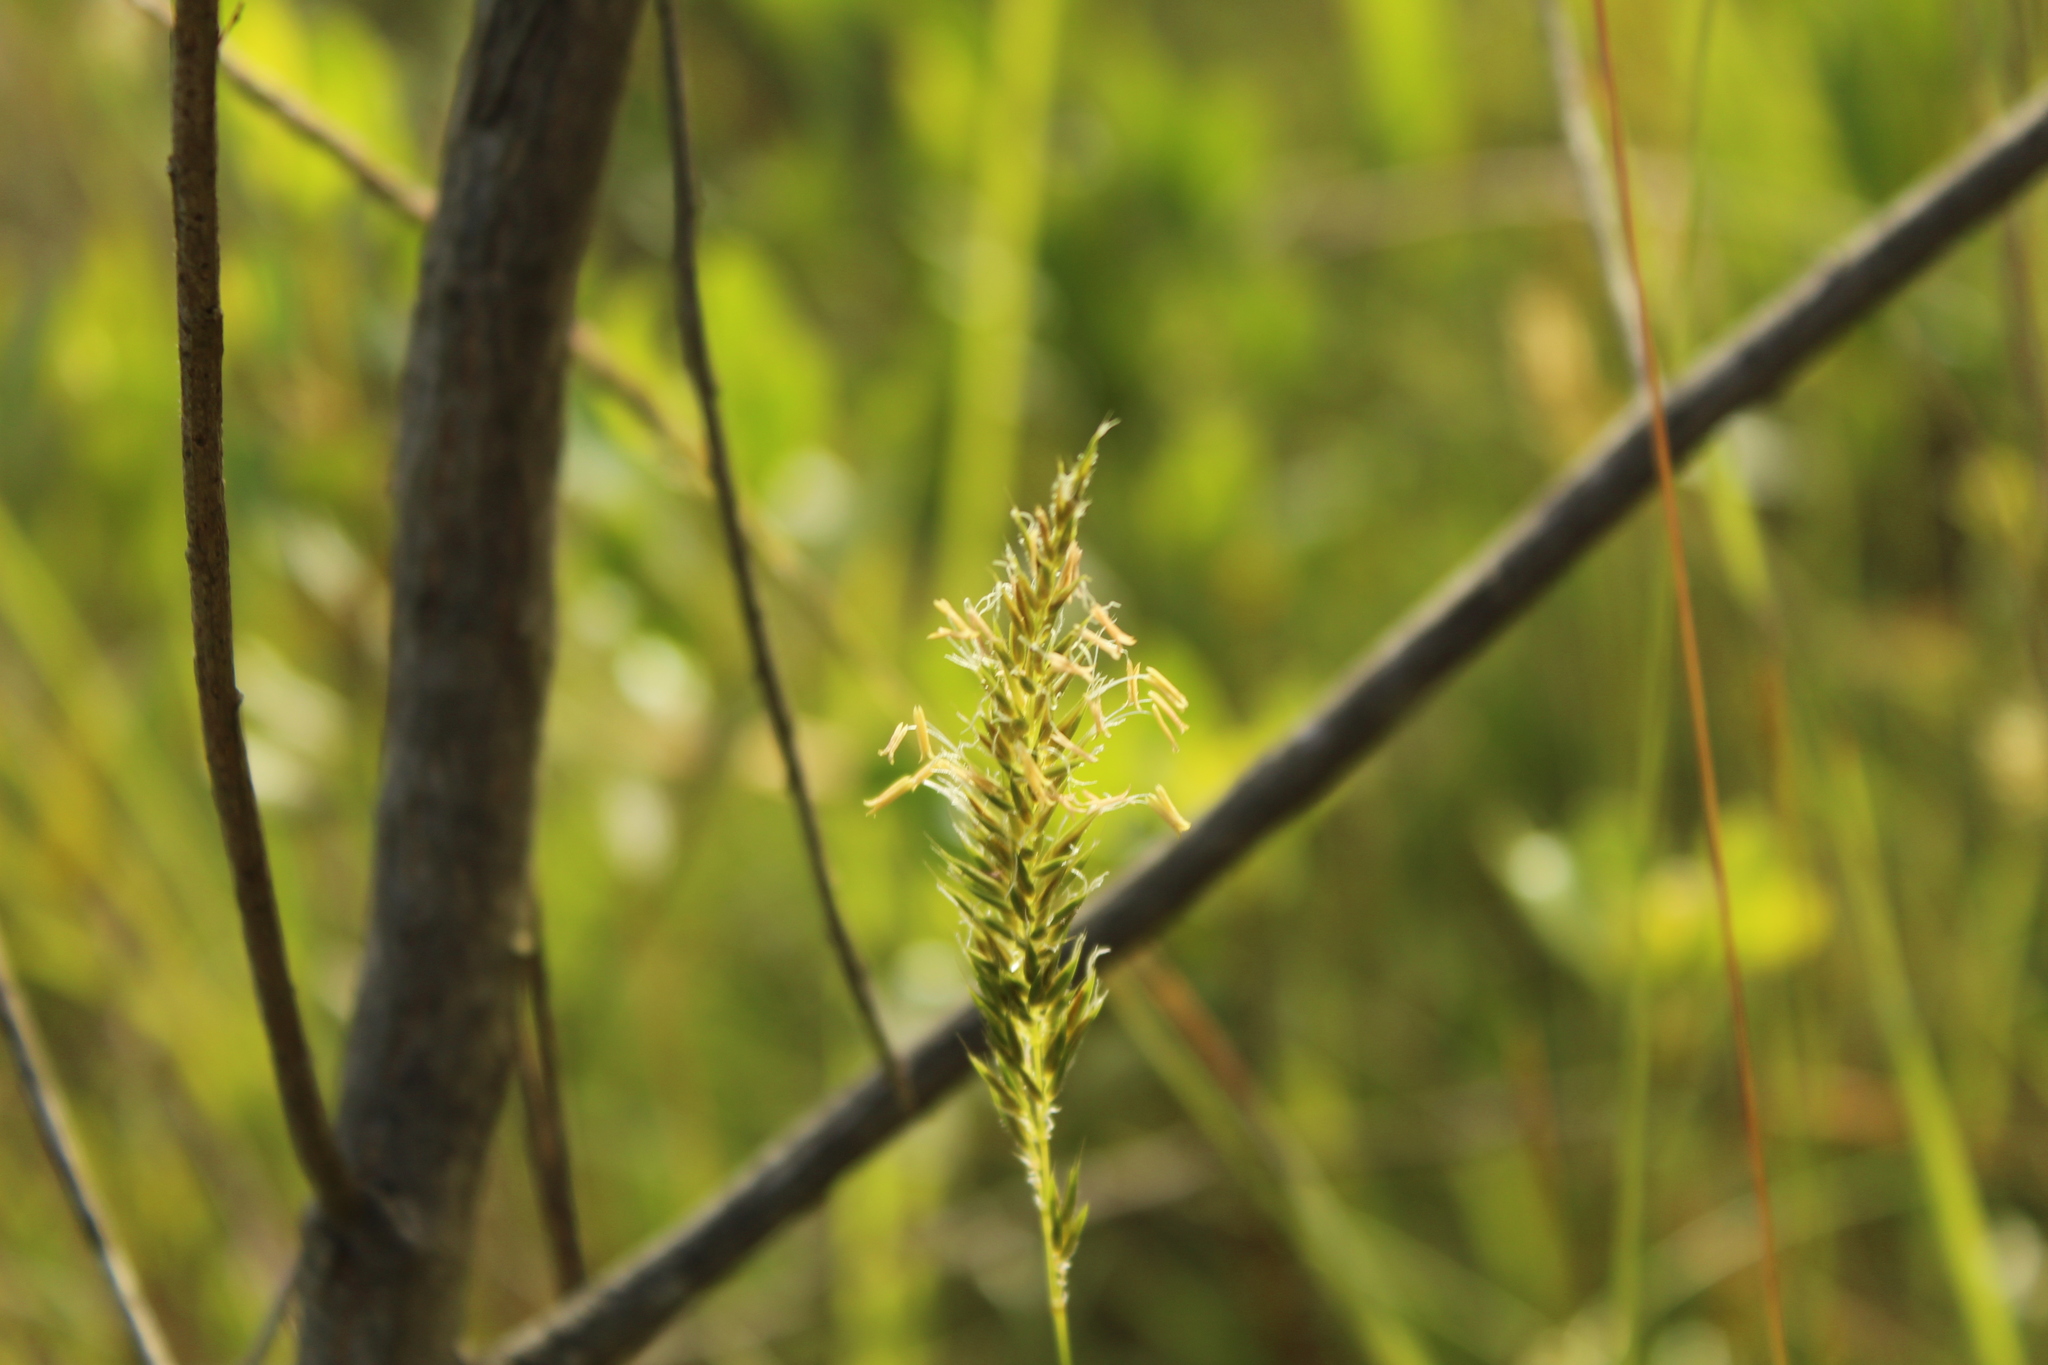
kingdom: Plantae
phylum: Tracheophyta
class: Liliopsida
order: Poales
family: Poaceae
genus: Anthoxanthum
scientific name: Anthoxanthum odoratum
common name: Sweet vernalgrass
